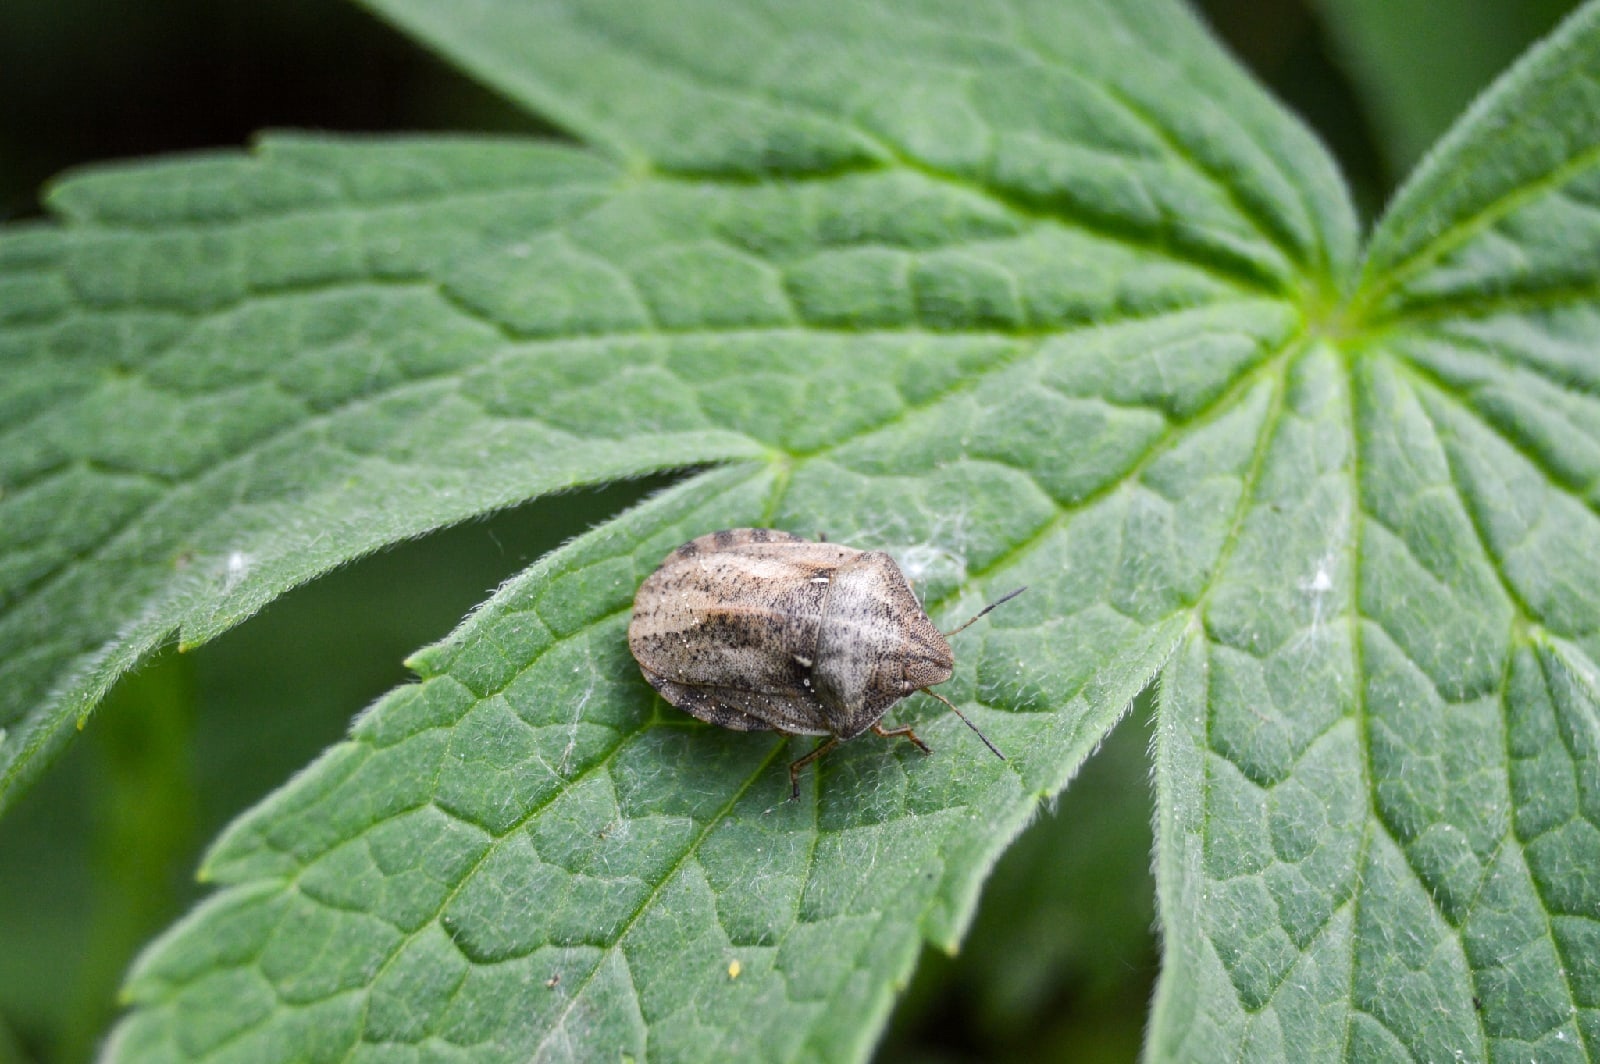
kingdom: Animalia
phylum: Arthropoda
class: Insecta
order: Hemiptera
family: Scutelleridae
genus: Eurygaster
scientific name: Eurygaster maura
